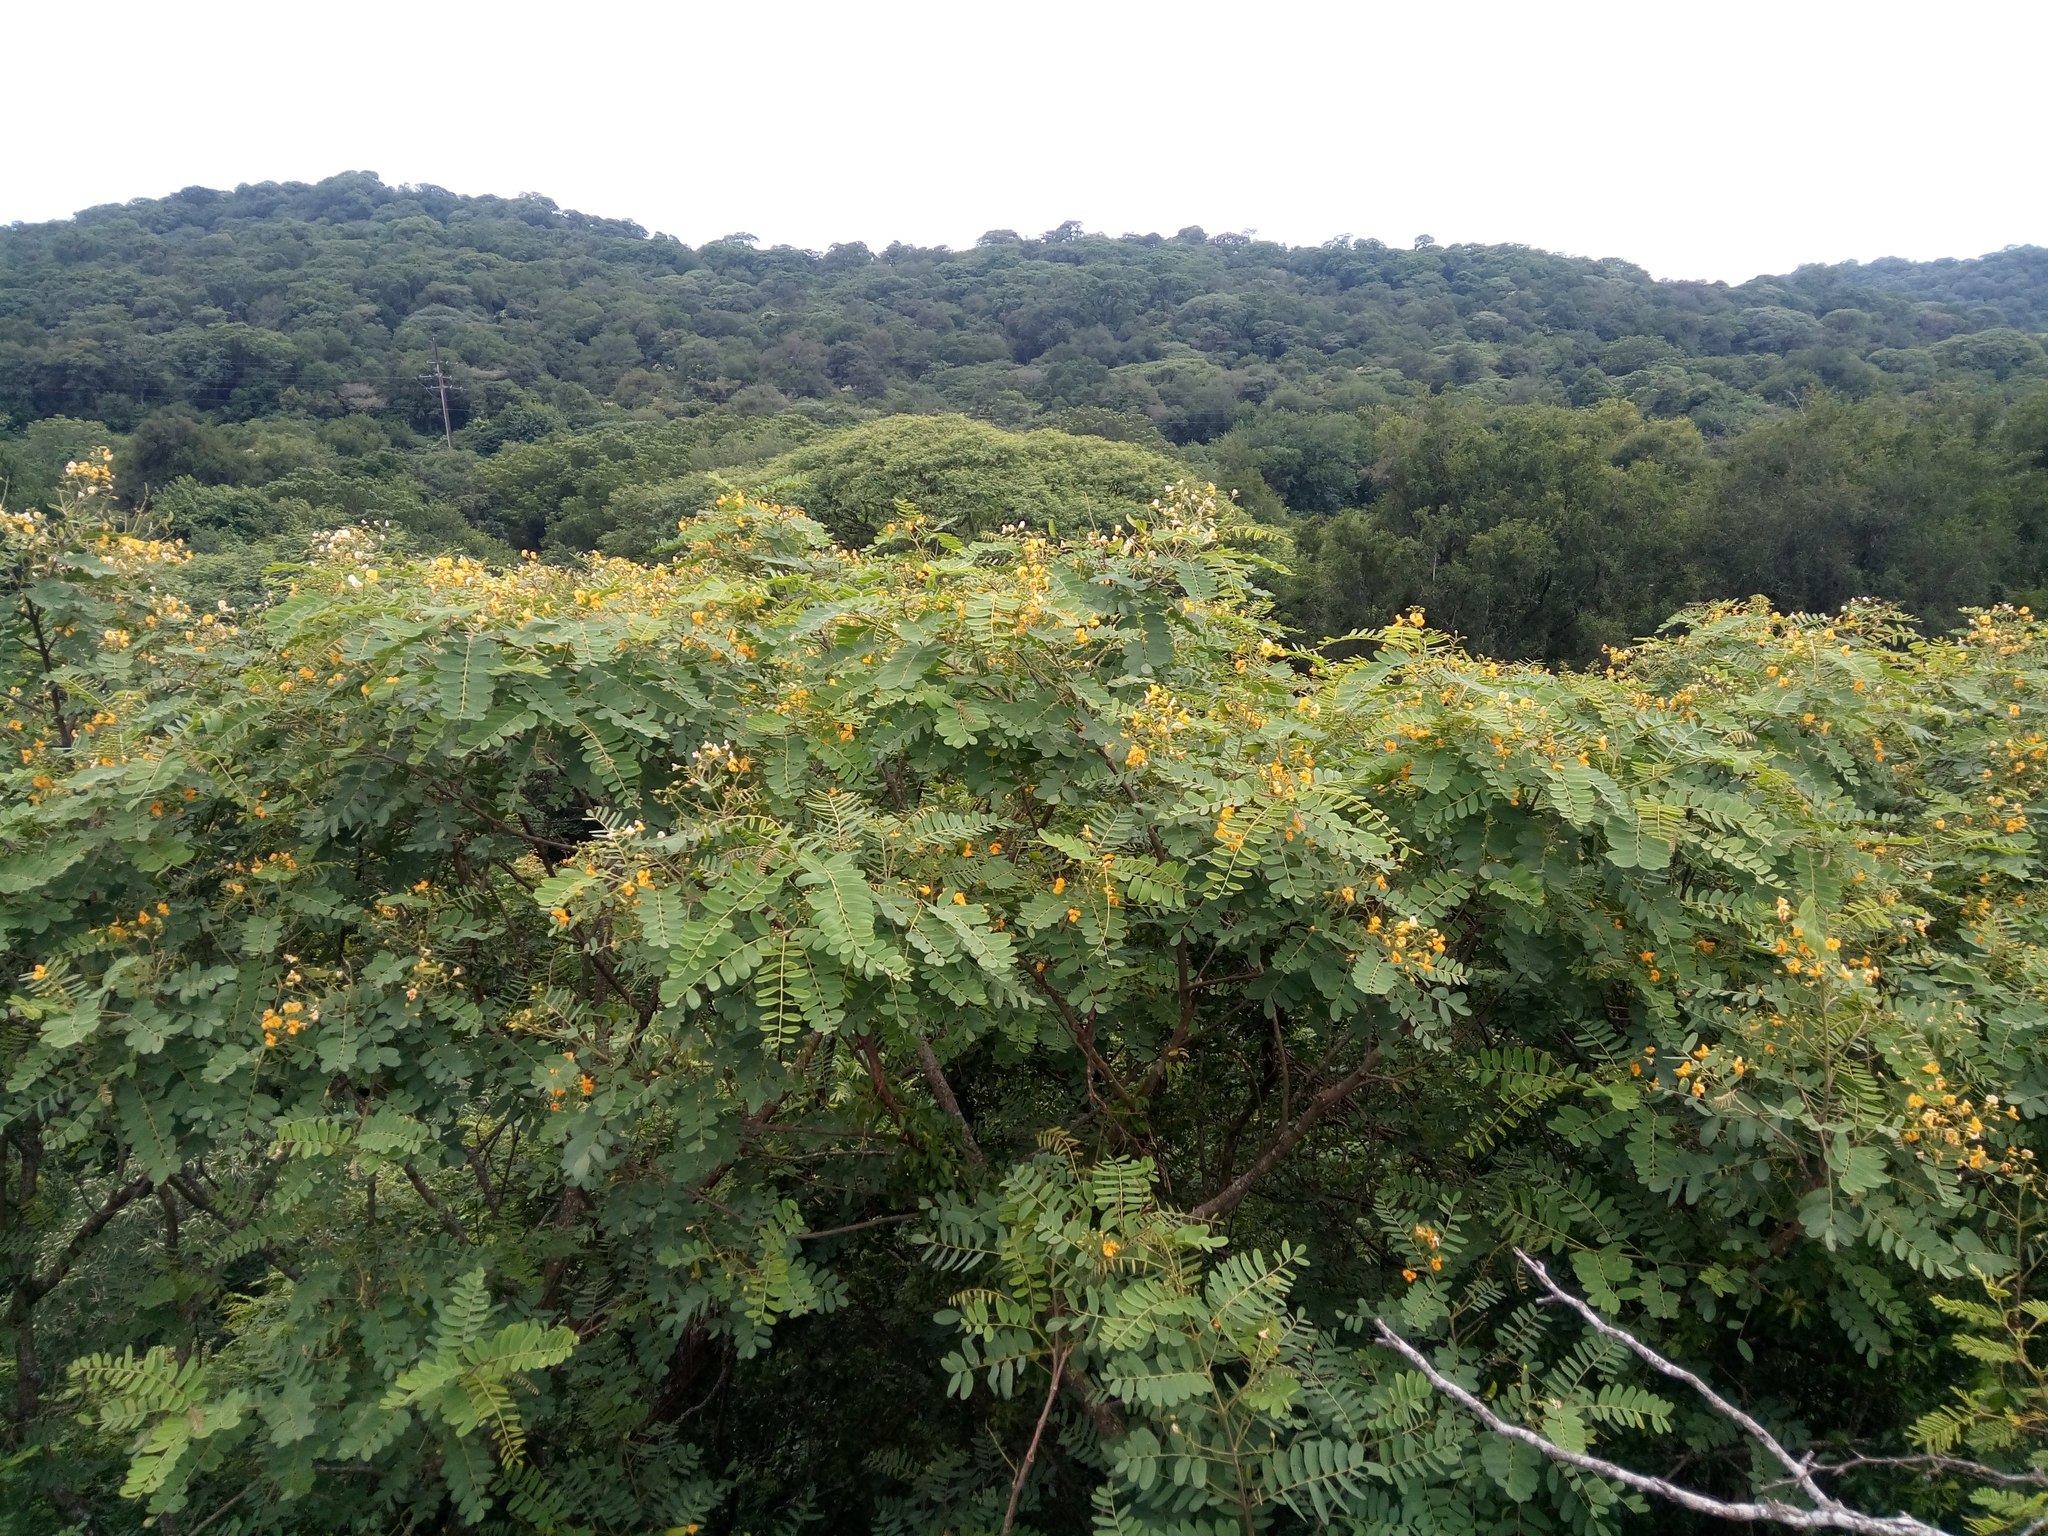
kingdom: Plantae
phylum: Tracheophyta
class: Magnoliopsida
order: Fabales
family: Fabaceae
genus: Tipuana
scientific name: Tipuana tipu
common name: Tiputree
